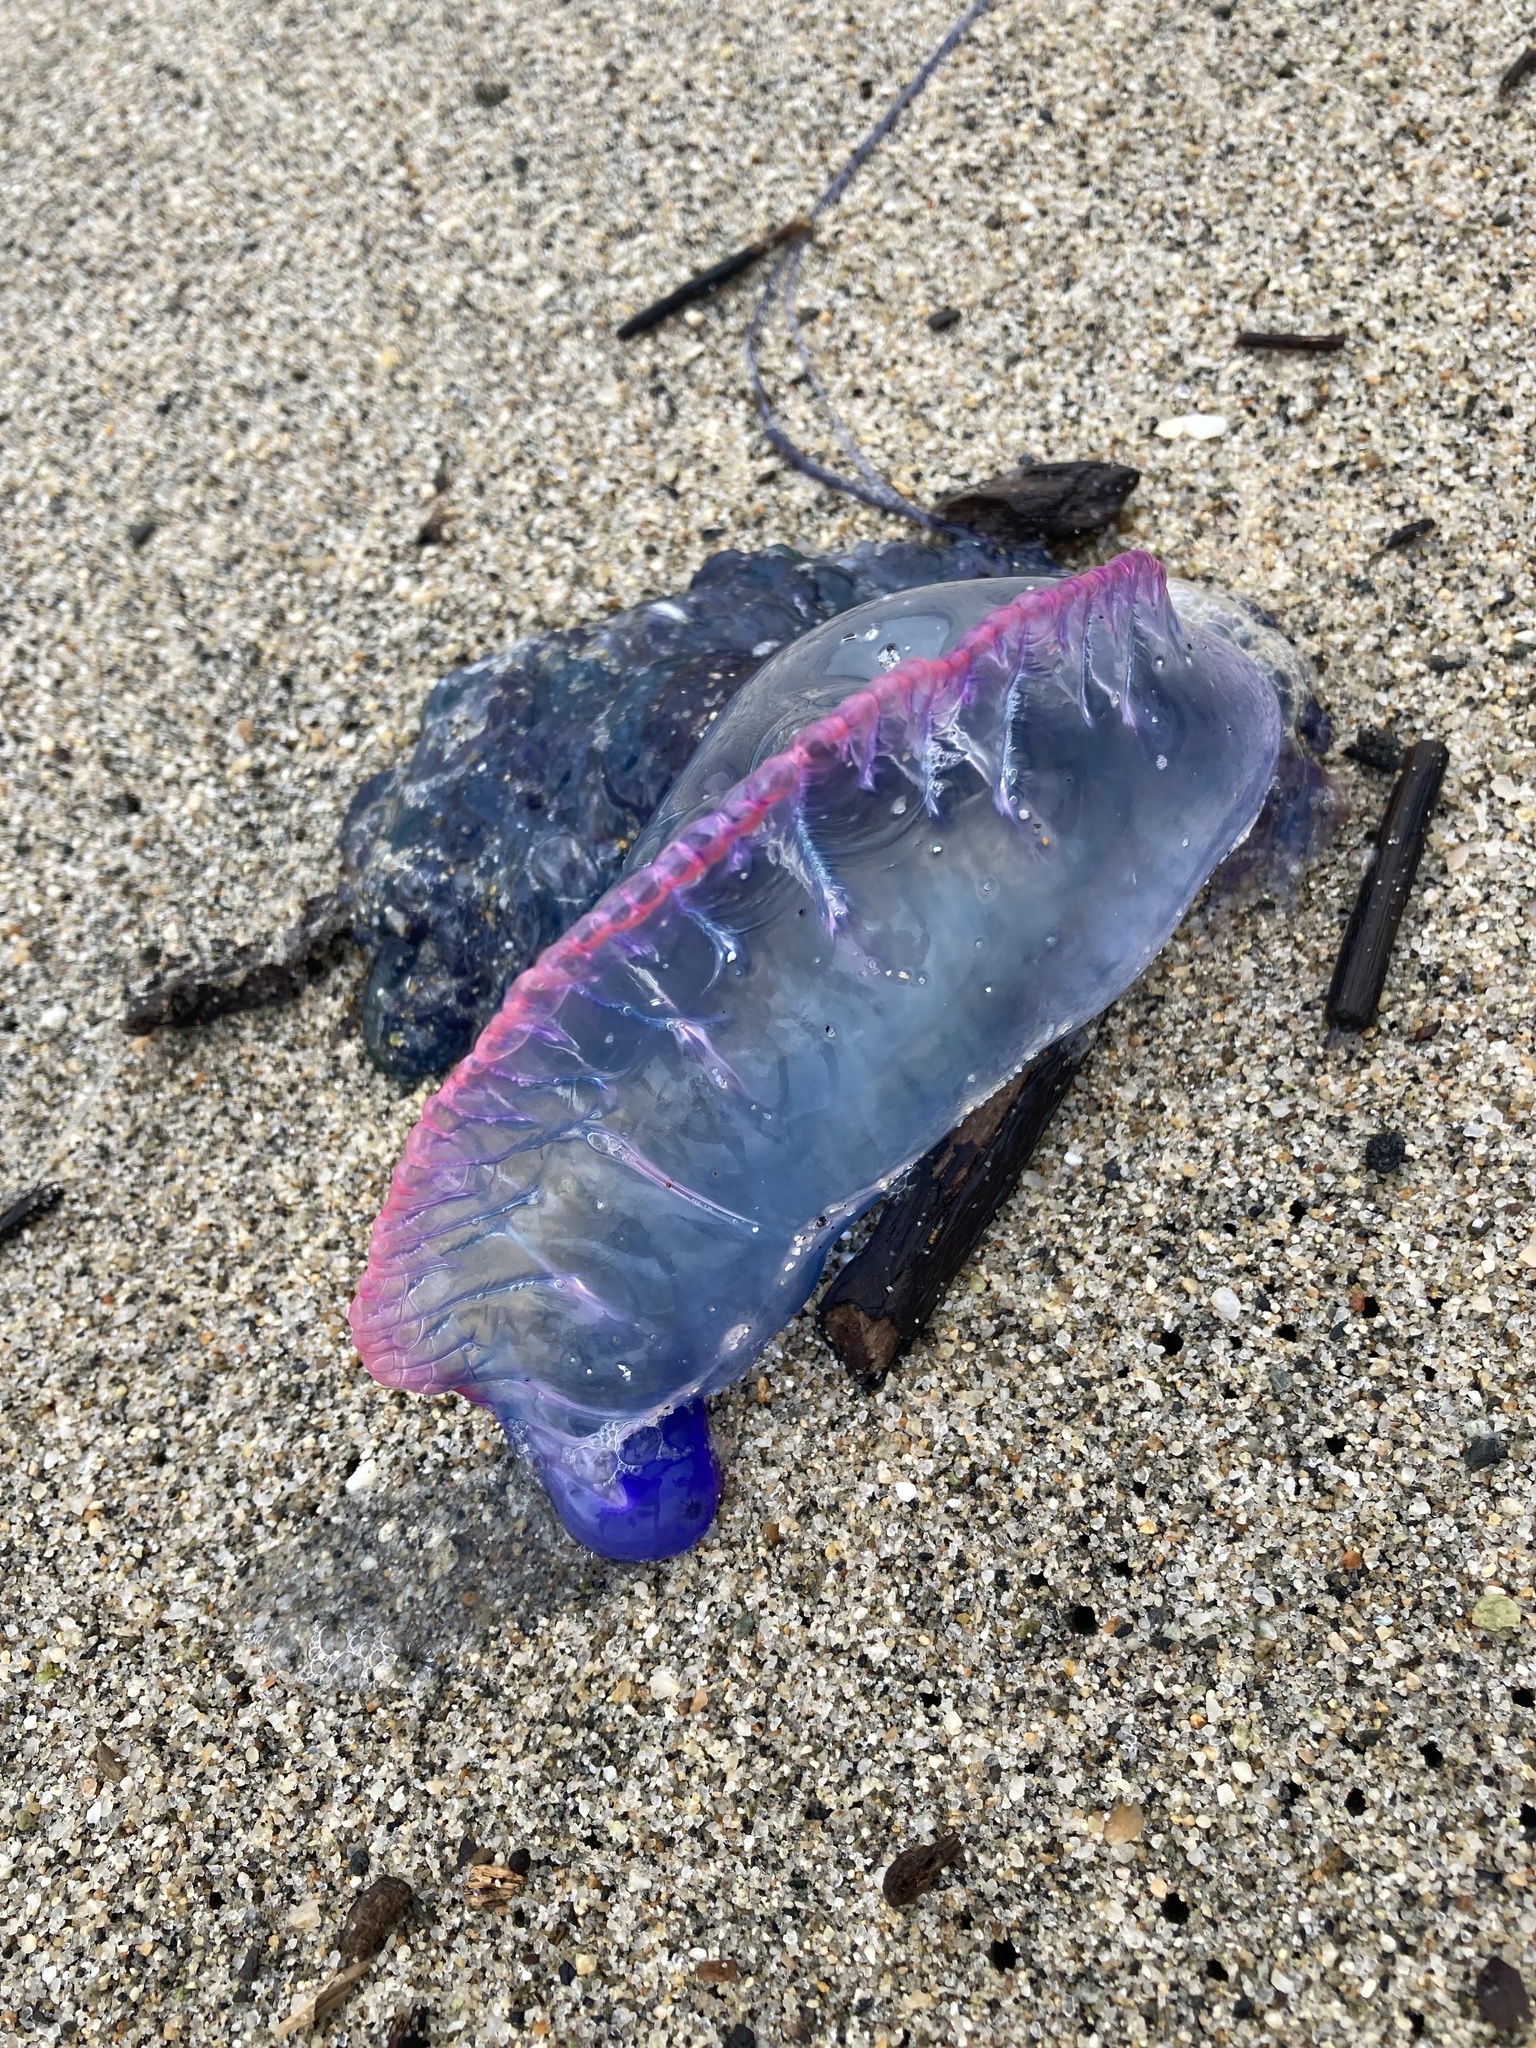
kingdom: Animalia
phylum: Cnidaria
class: Hydrozoa
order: Siphonophorae
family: Physaliidae
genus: Physalia
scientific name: Physalia physalis
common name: Portuguese man-of-war
